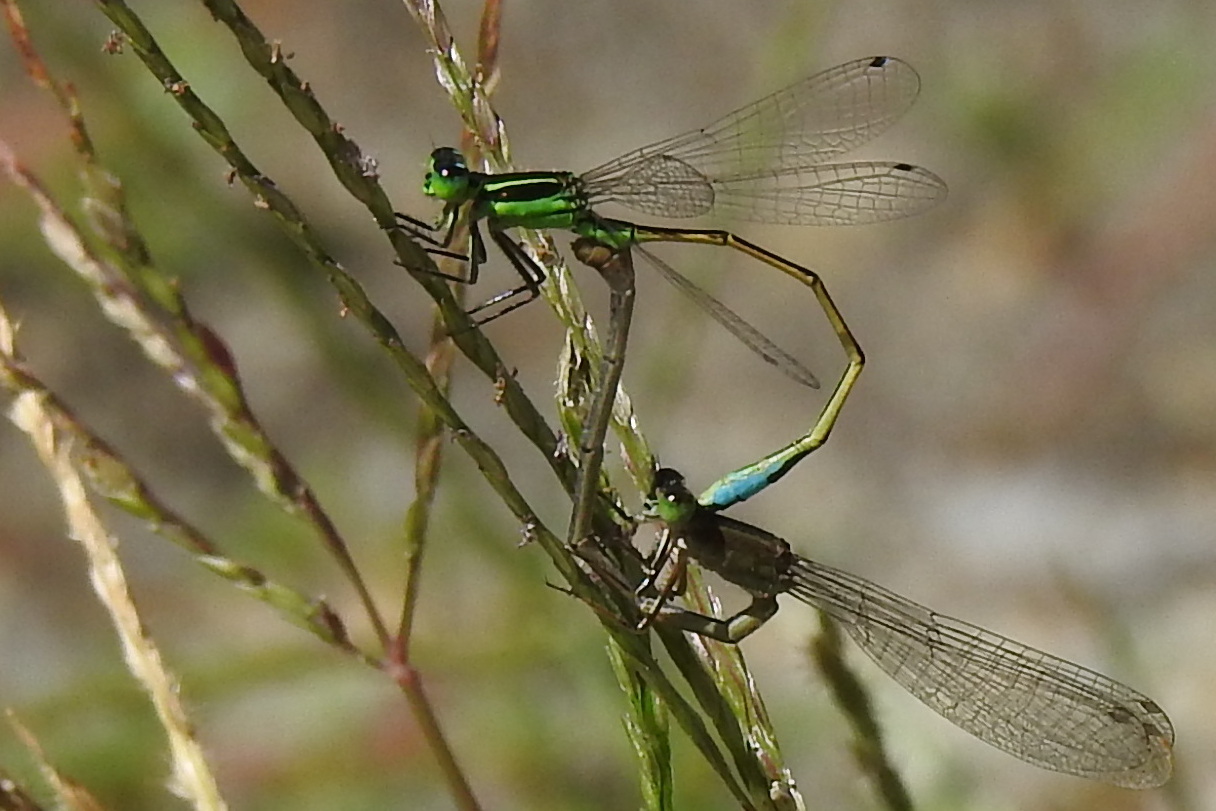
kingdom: Animalia
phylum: Arthropoda
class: Insecta
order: Odonata
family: Coenagrionidae
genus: Ischnura
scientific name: Ischnura ramburii
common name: Rambur's forktail
